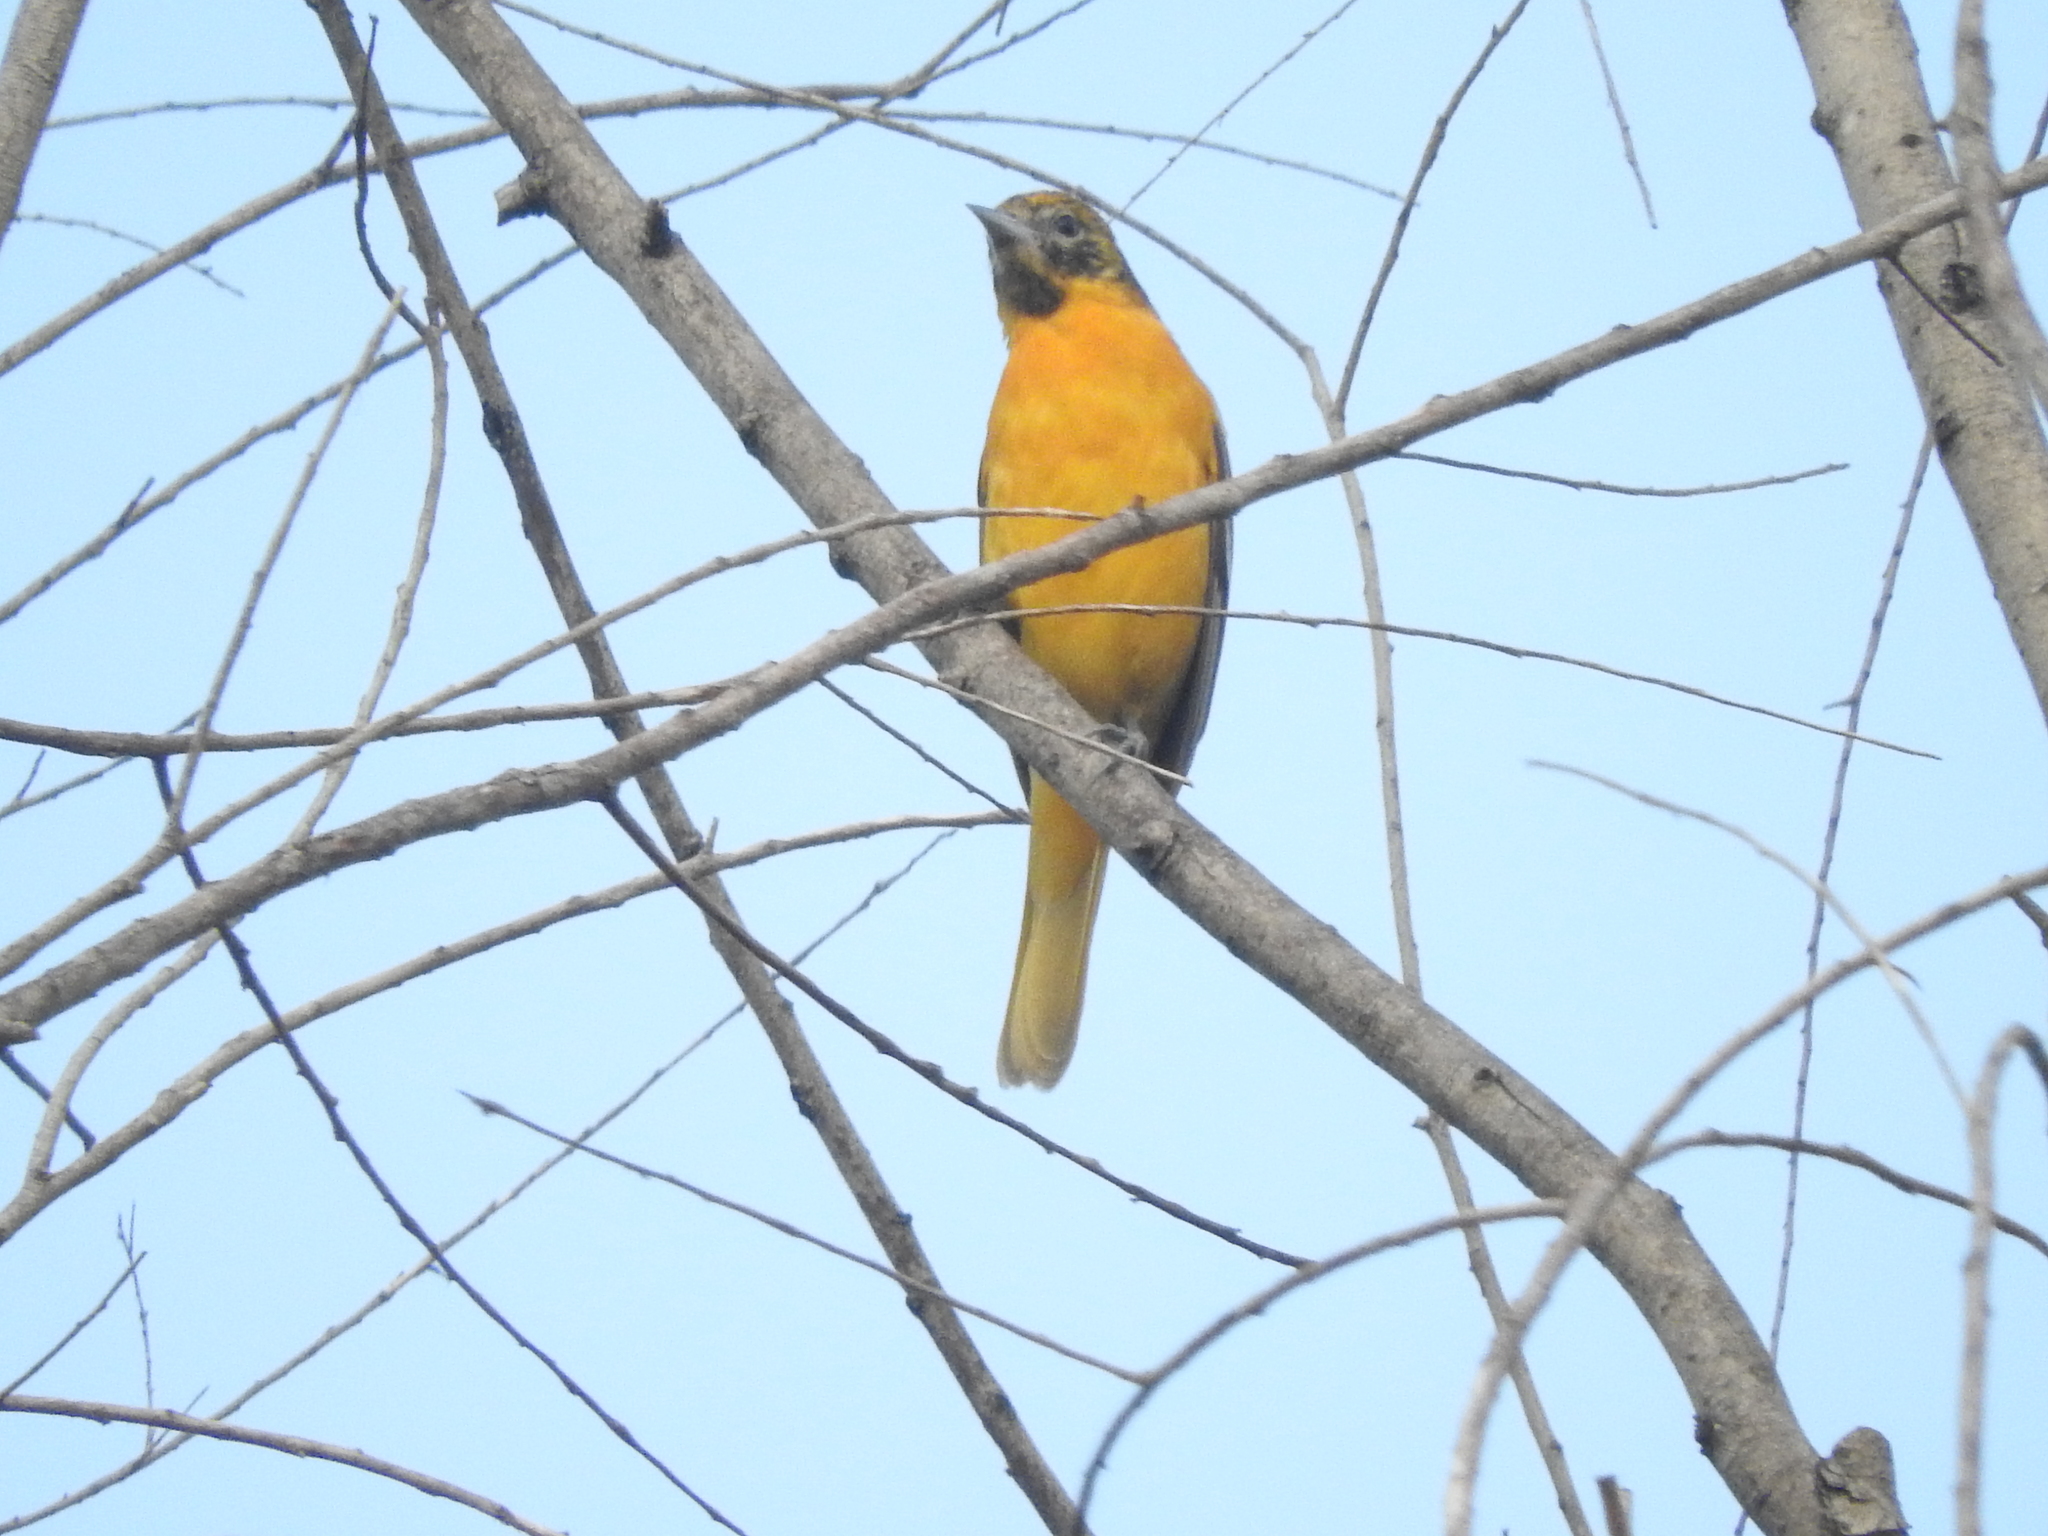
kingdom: Animalia
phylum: Chordata
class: Aves
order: Passeriformes
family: Icteridae
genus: Icterus
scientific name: Icterus galbula
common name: Baltimore oriole
